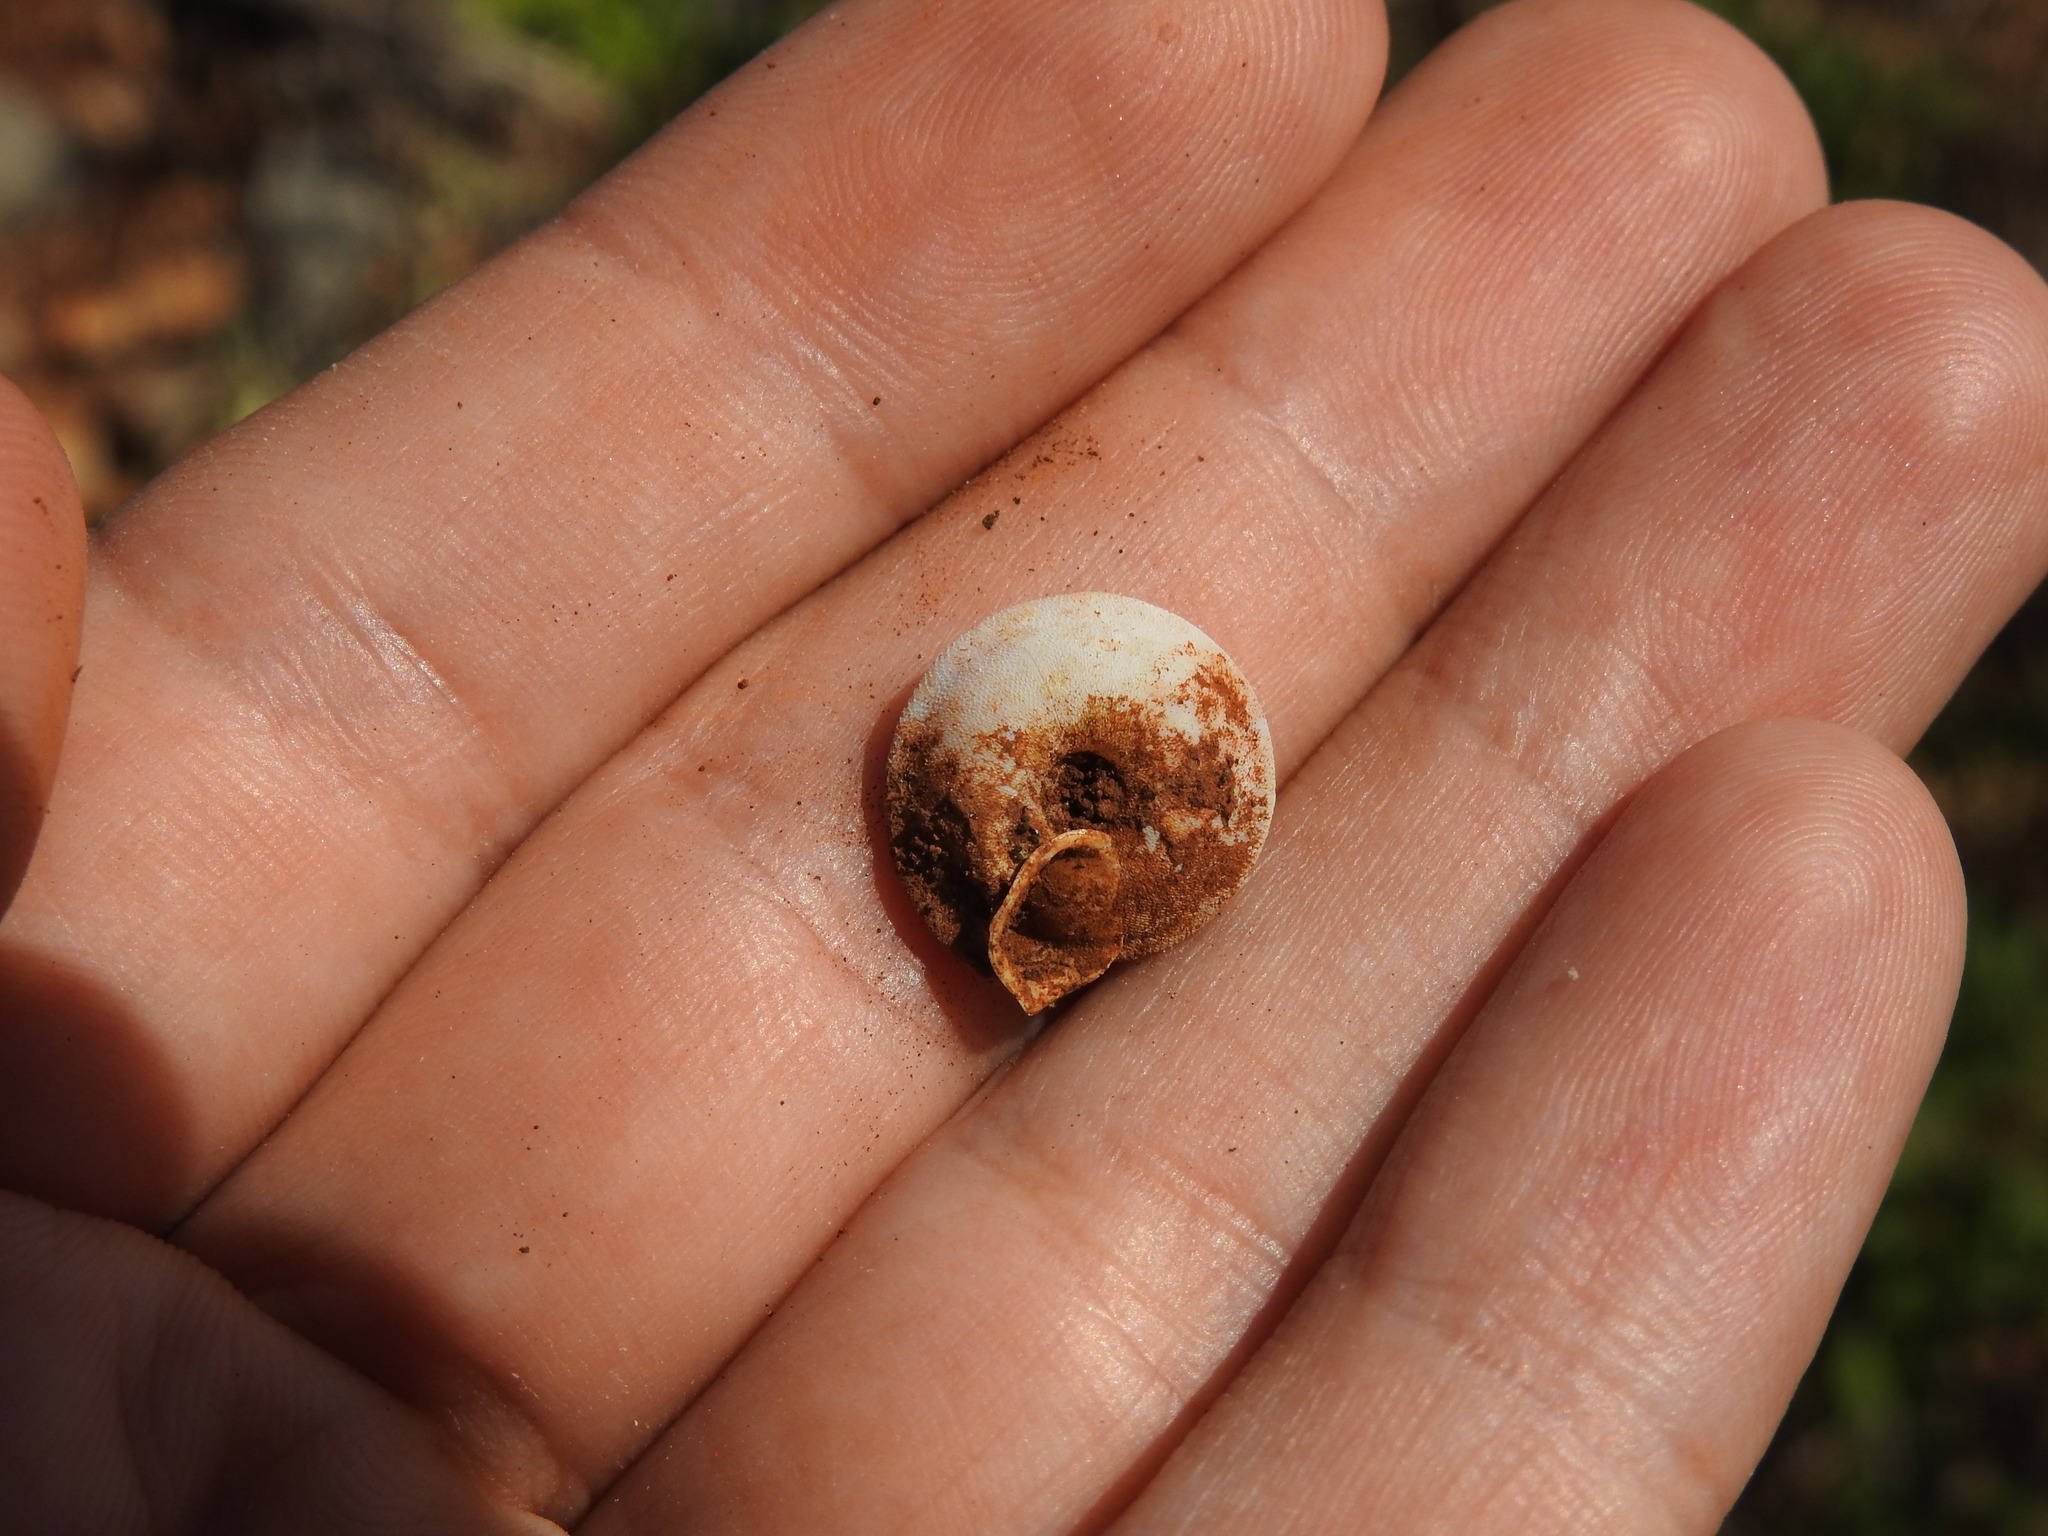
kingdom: Animalia
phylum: Mollusca
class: Gastropoda
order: Stylommatophora
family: Trissexodontidae
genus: Gittenbergeria
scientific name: Gittenbergeria turriplana
